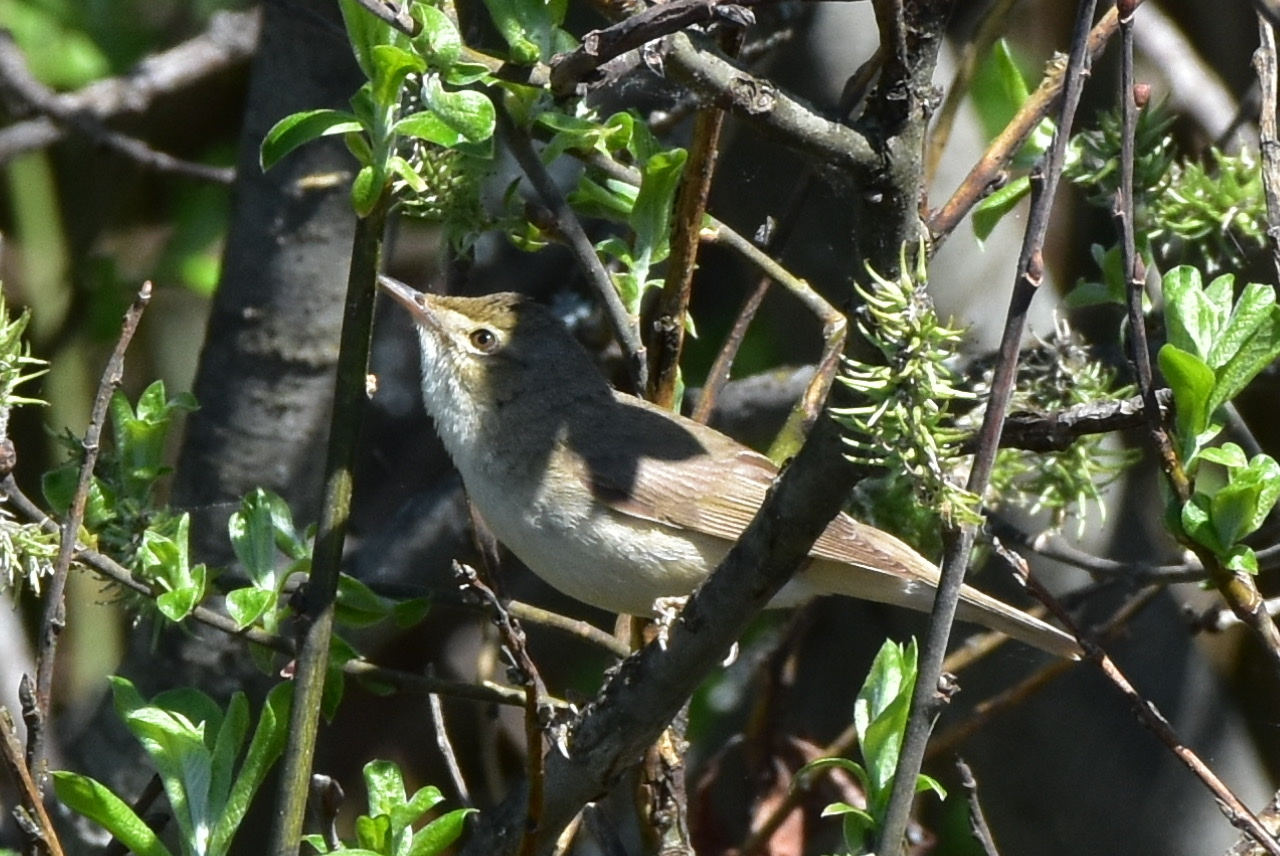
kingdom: Animalia
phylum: Chordata
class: Aves
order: Passeriformes
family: Acrocephalidae
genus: Acrocephalus
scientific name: Acrocephalus dumetorum
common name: Blyth's reed warbler
